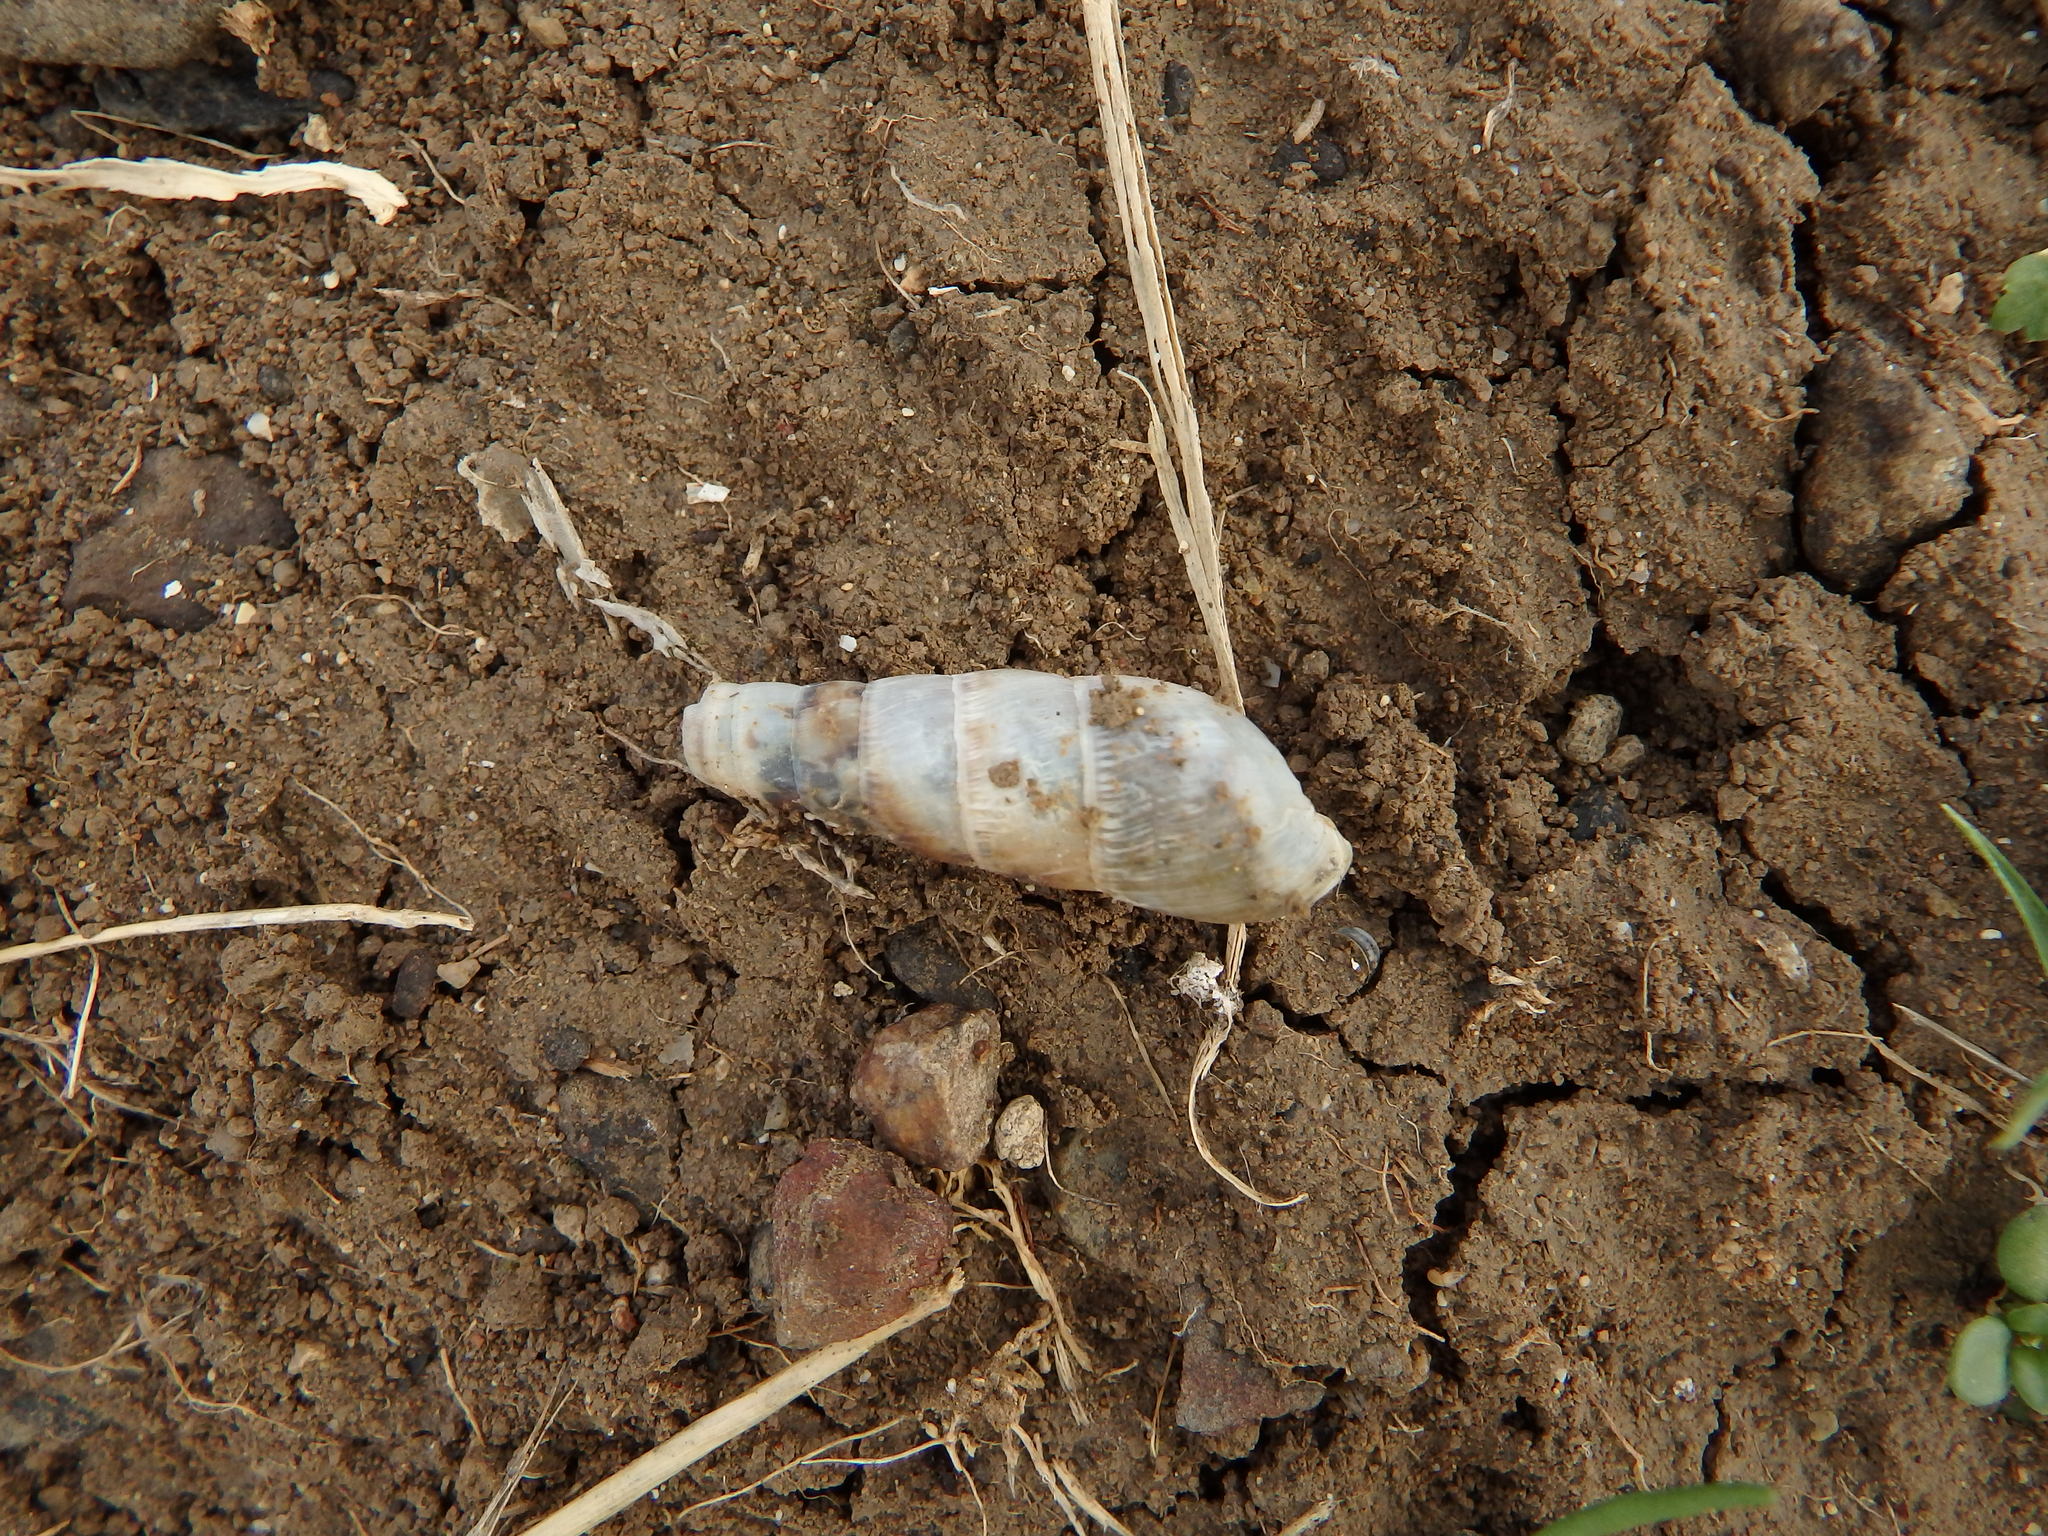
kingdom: Animalia
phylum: Mollusca
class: Gastropoda
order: Stylommatophora
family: Achatinidae
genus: Rumina
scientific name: Rumina decollata
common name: Decollate snail
